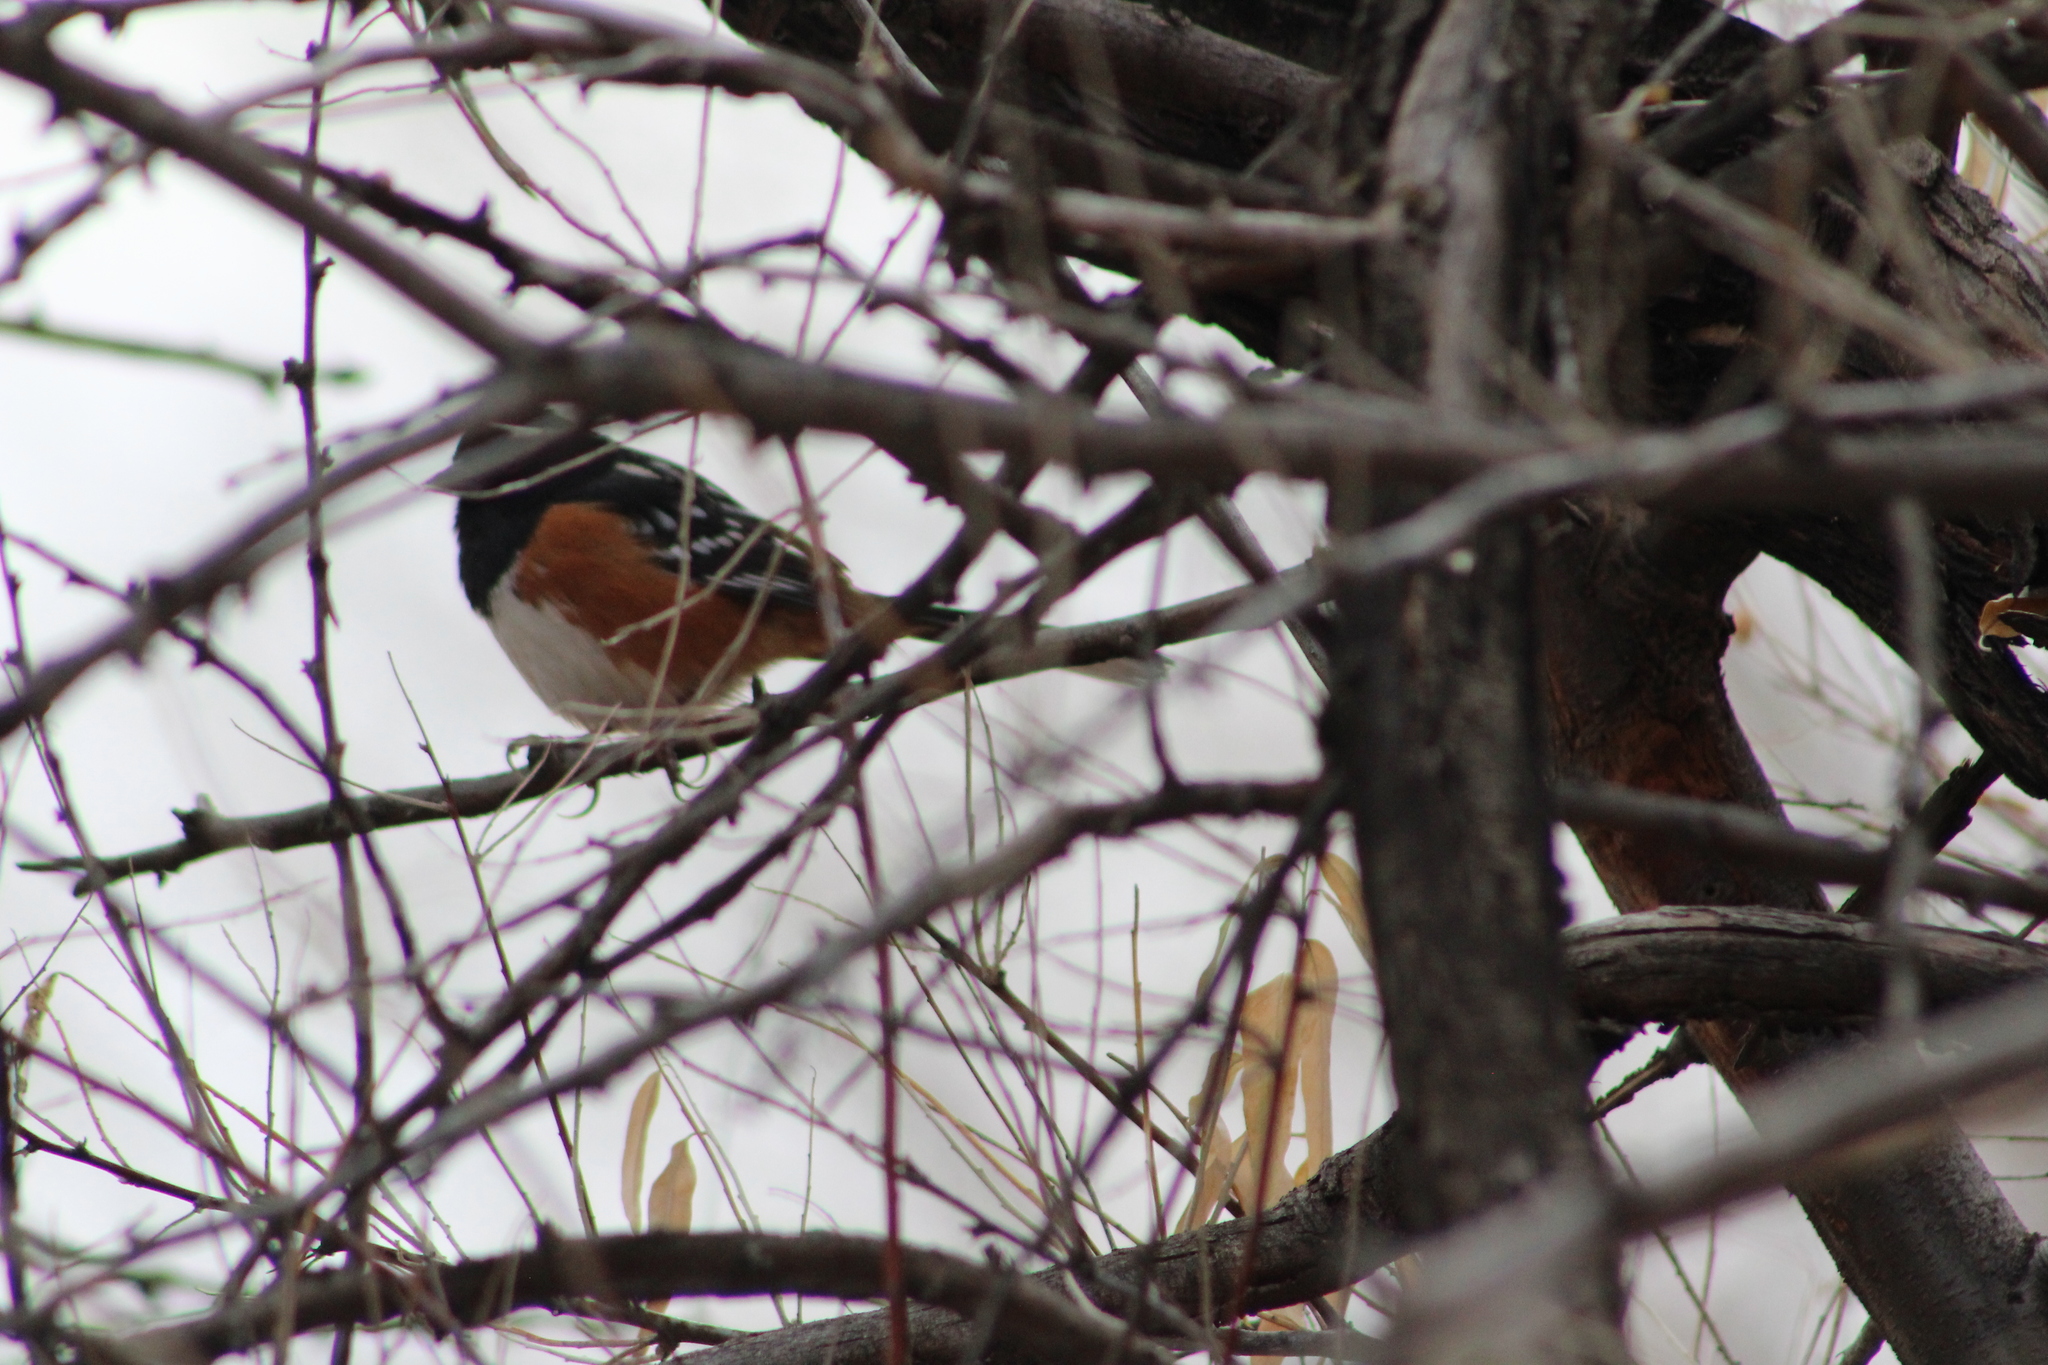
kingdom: Animalia
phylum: Chordata
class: Aves
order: Passeriformes
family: Passerellidae
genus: Pipilo
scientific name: Pipilo maculatus
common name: Spotted towhee
